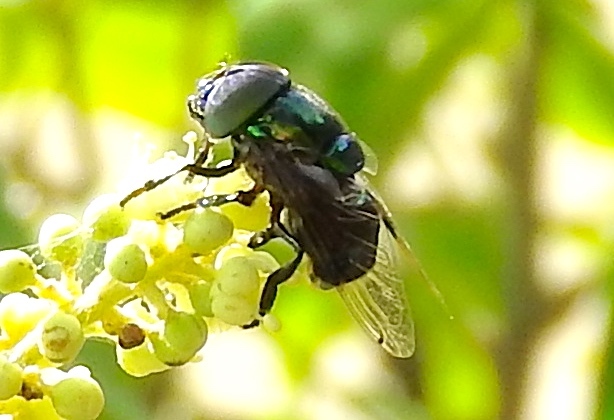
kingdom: Animalia
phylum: Arthropoda
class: Insecta
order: Diptera
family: Syrphidae
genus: Ornidia
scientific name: Ornidia
